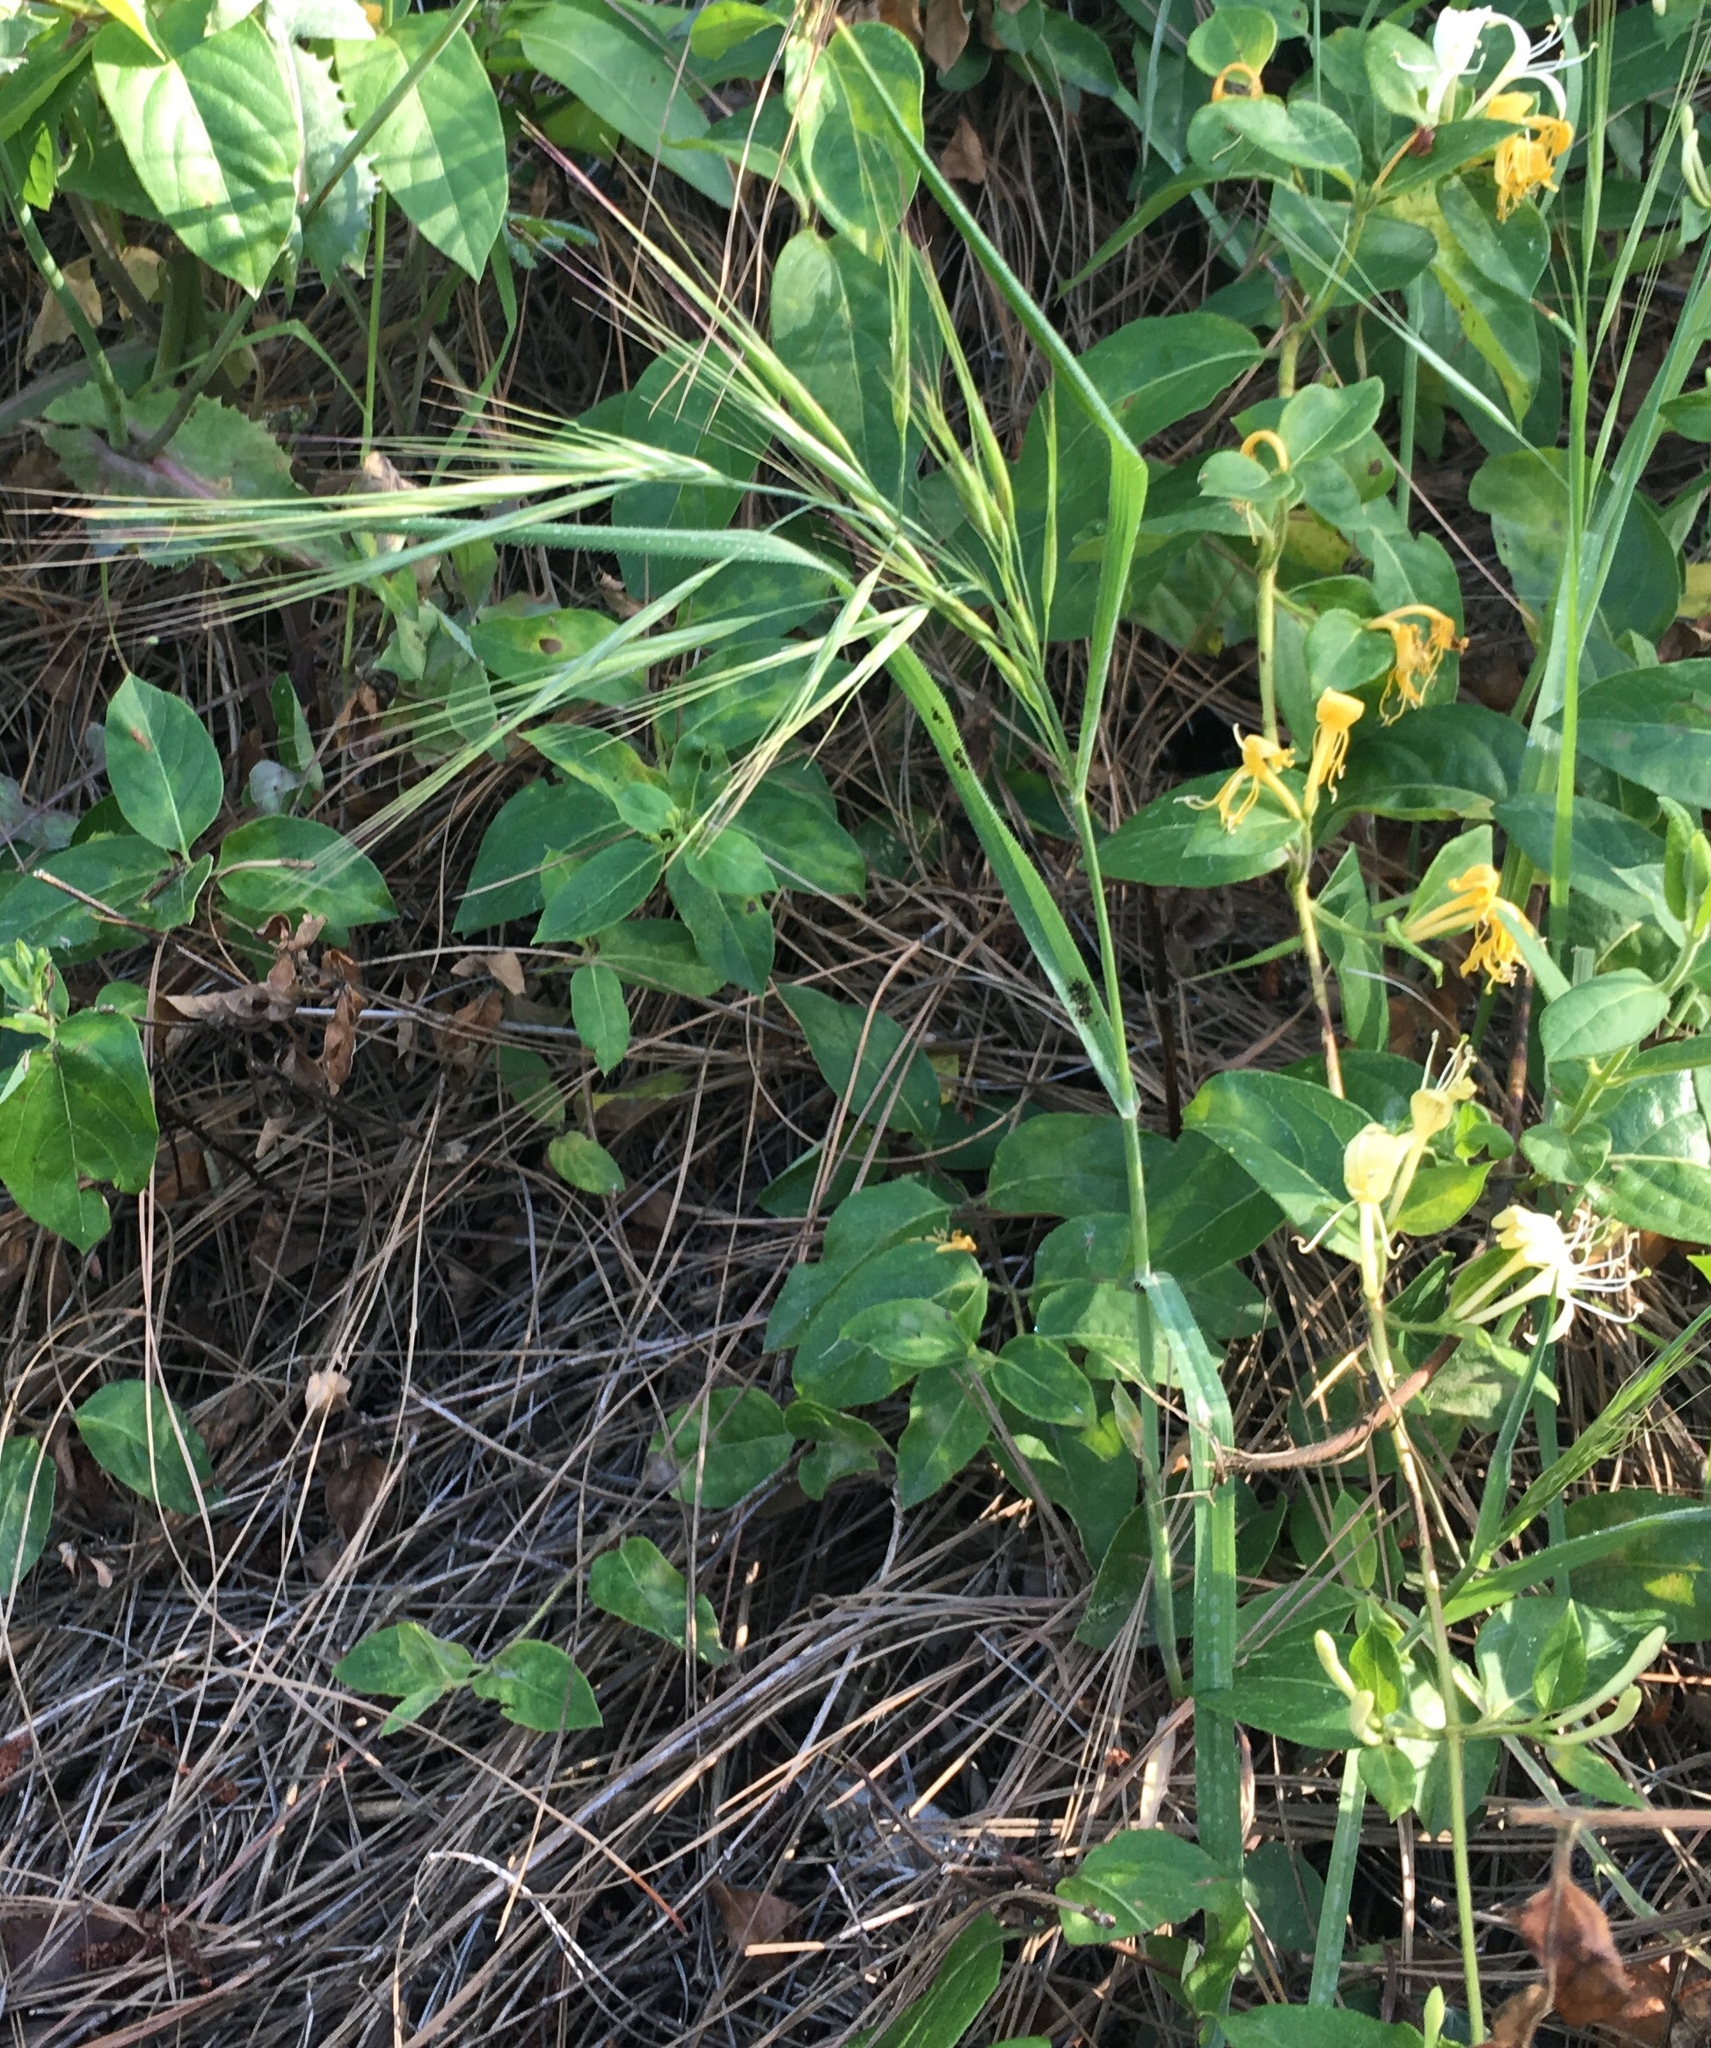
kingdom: Plantae
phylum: Tracheophyta
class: Liliopsida
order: Poales
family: Poaceae
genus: Bromus
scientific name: Bromus diandrus
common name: Ripgut brome
